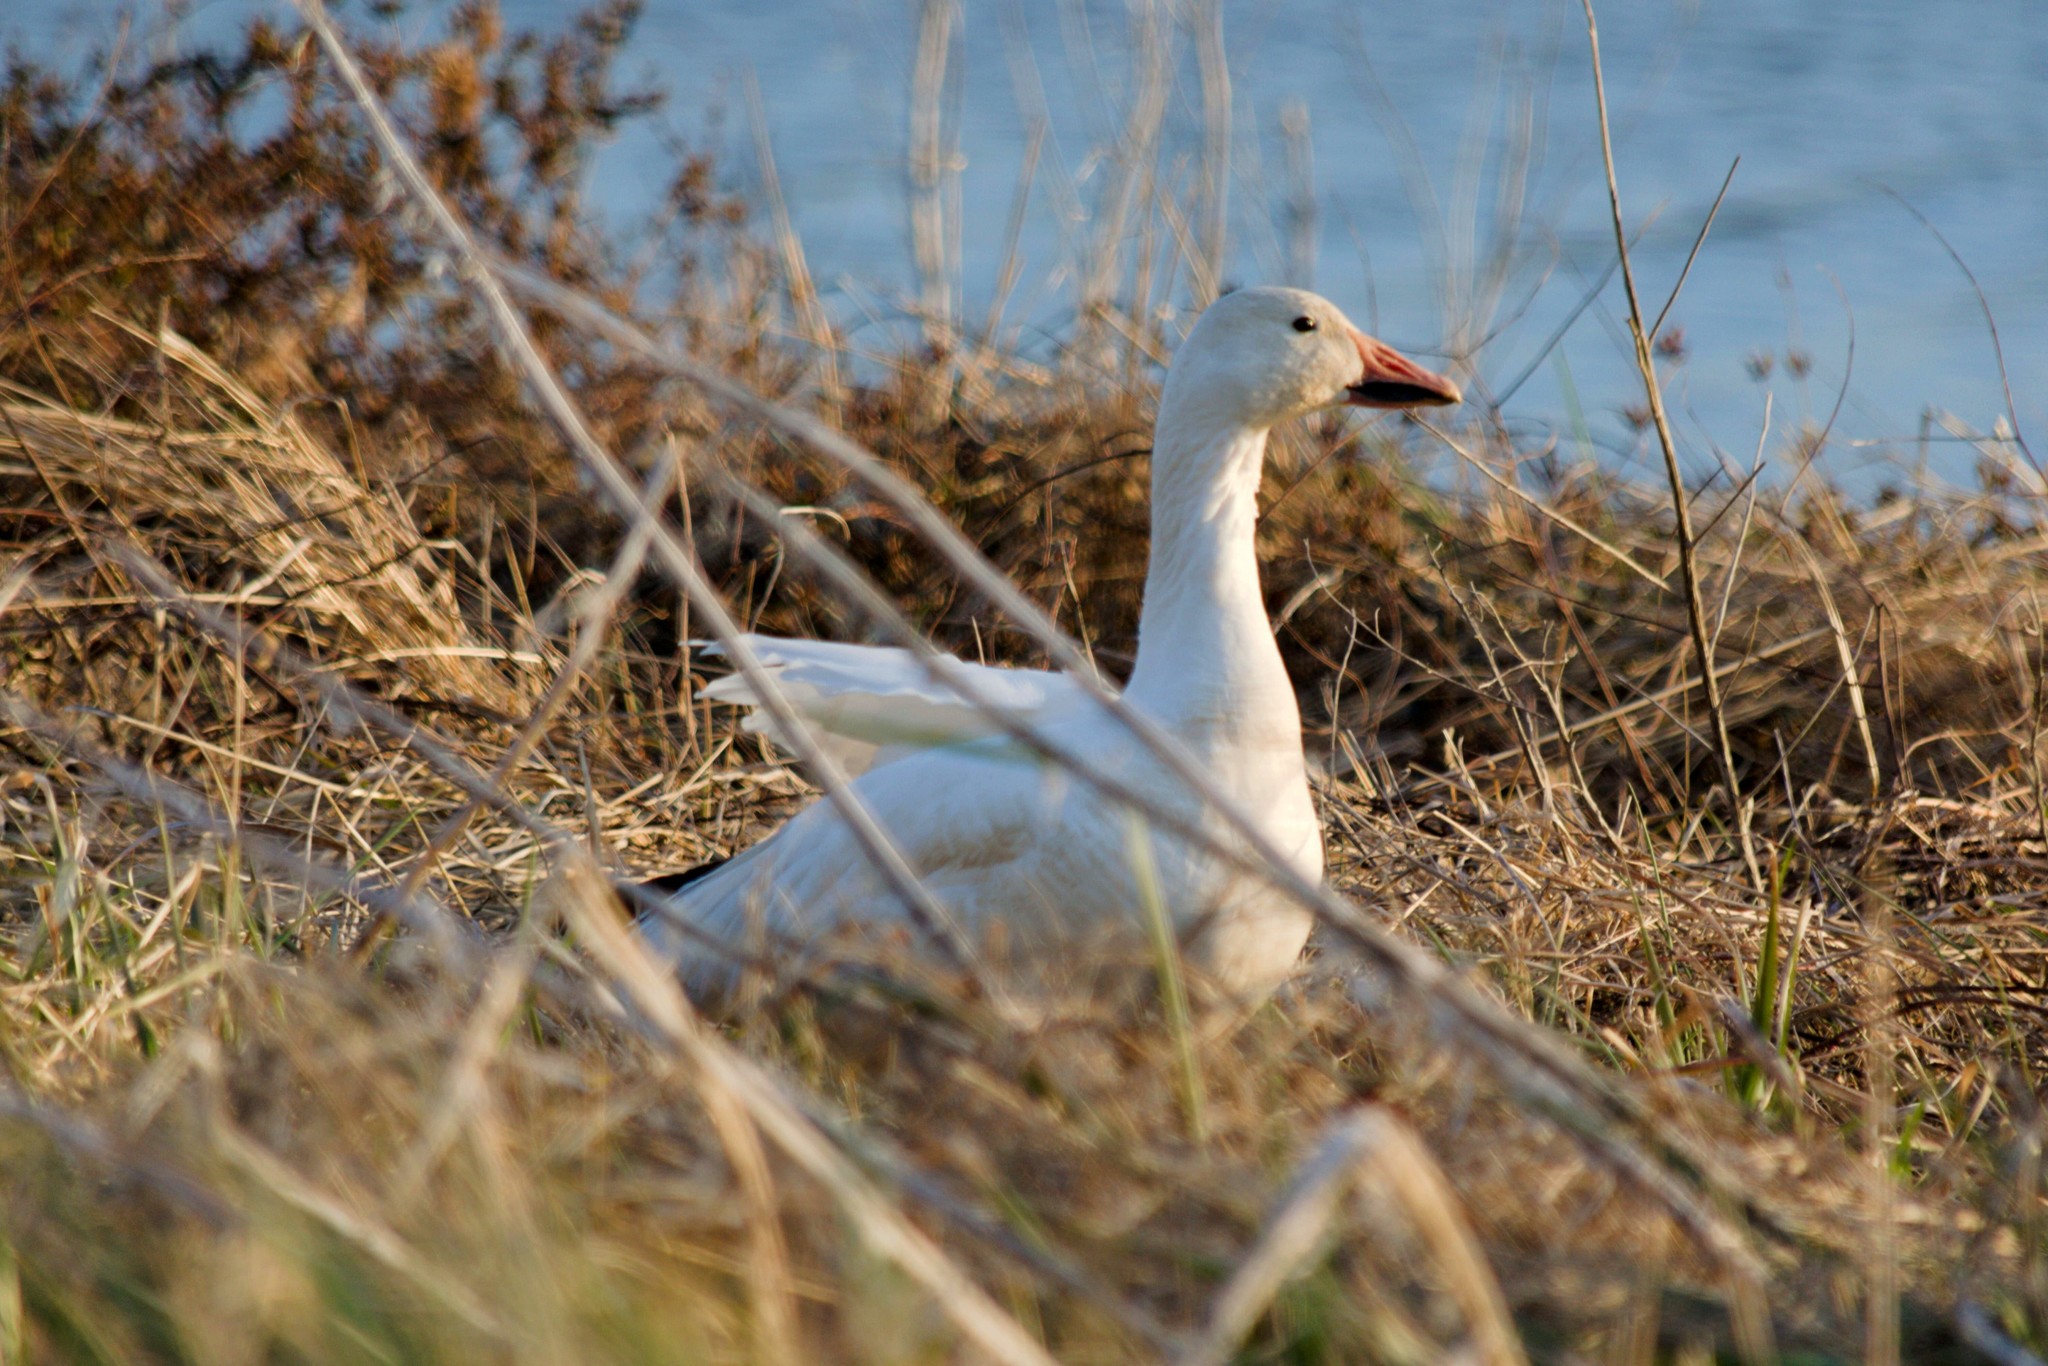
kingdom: Animalia
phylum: Chordata
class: Aves
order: Anseriformes
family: Anatidae
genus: Anser
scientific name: Anser caerulescens
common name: Snow goose
